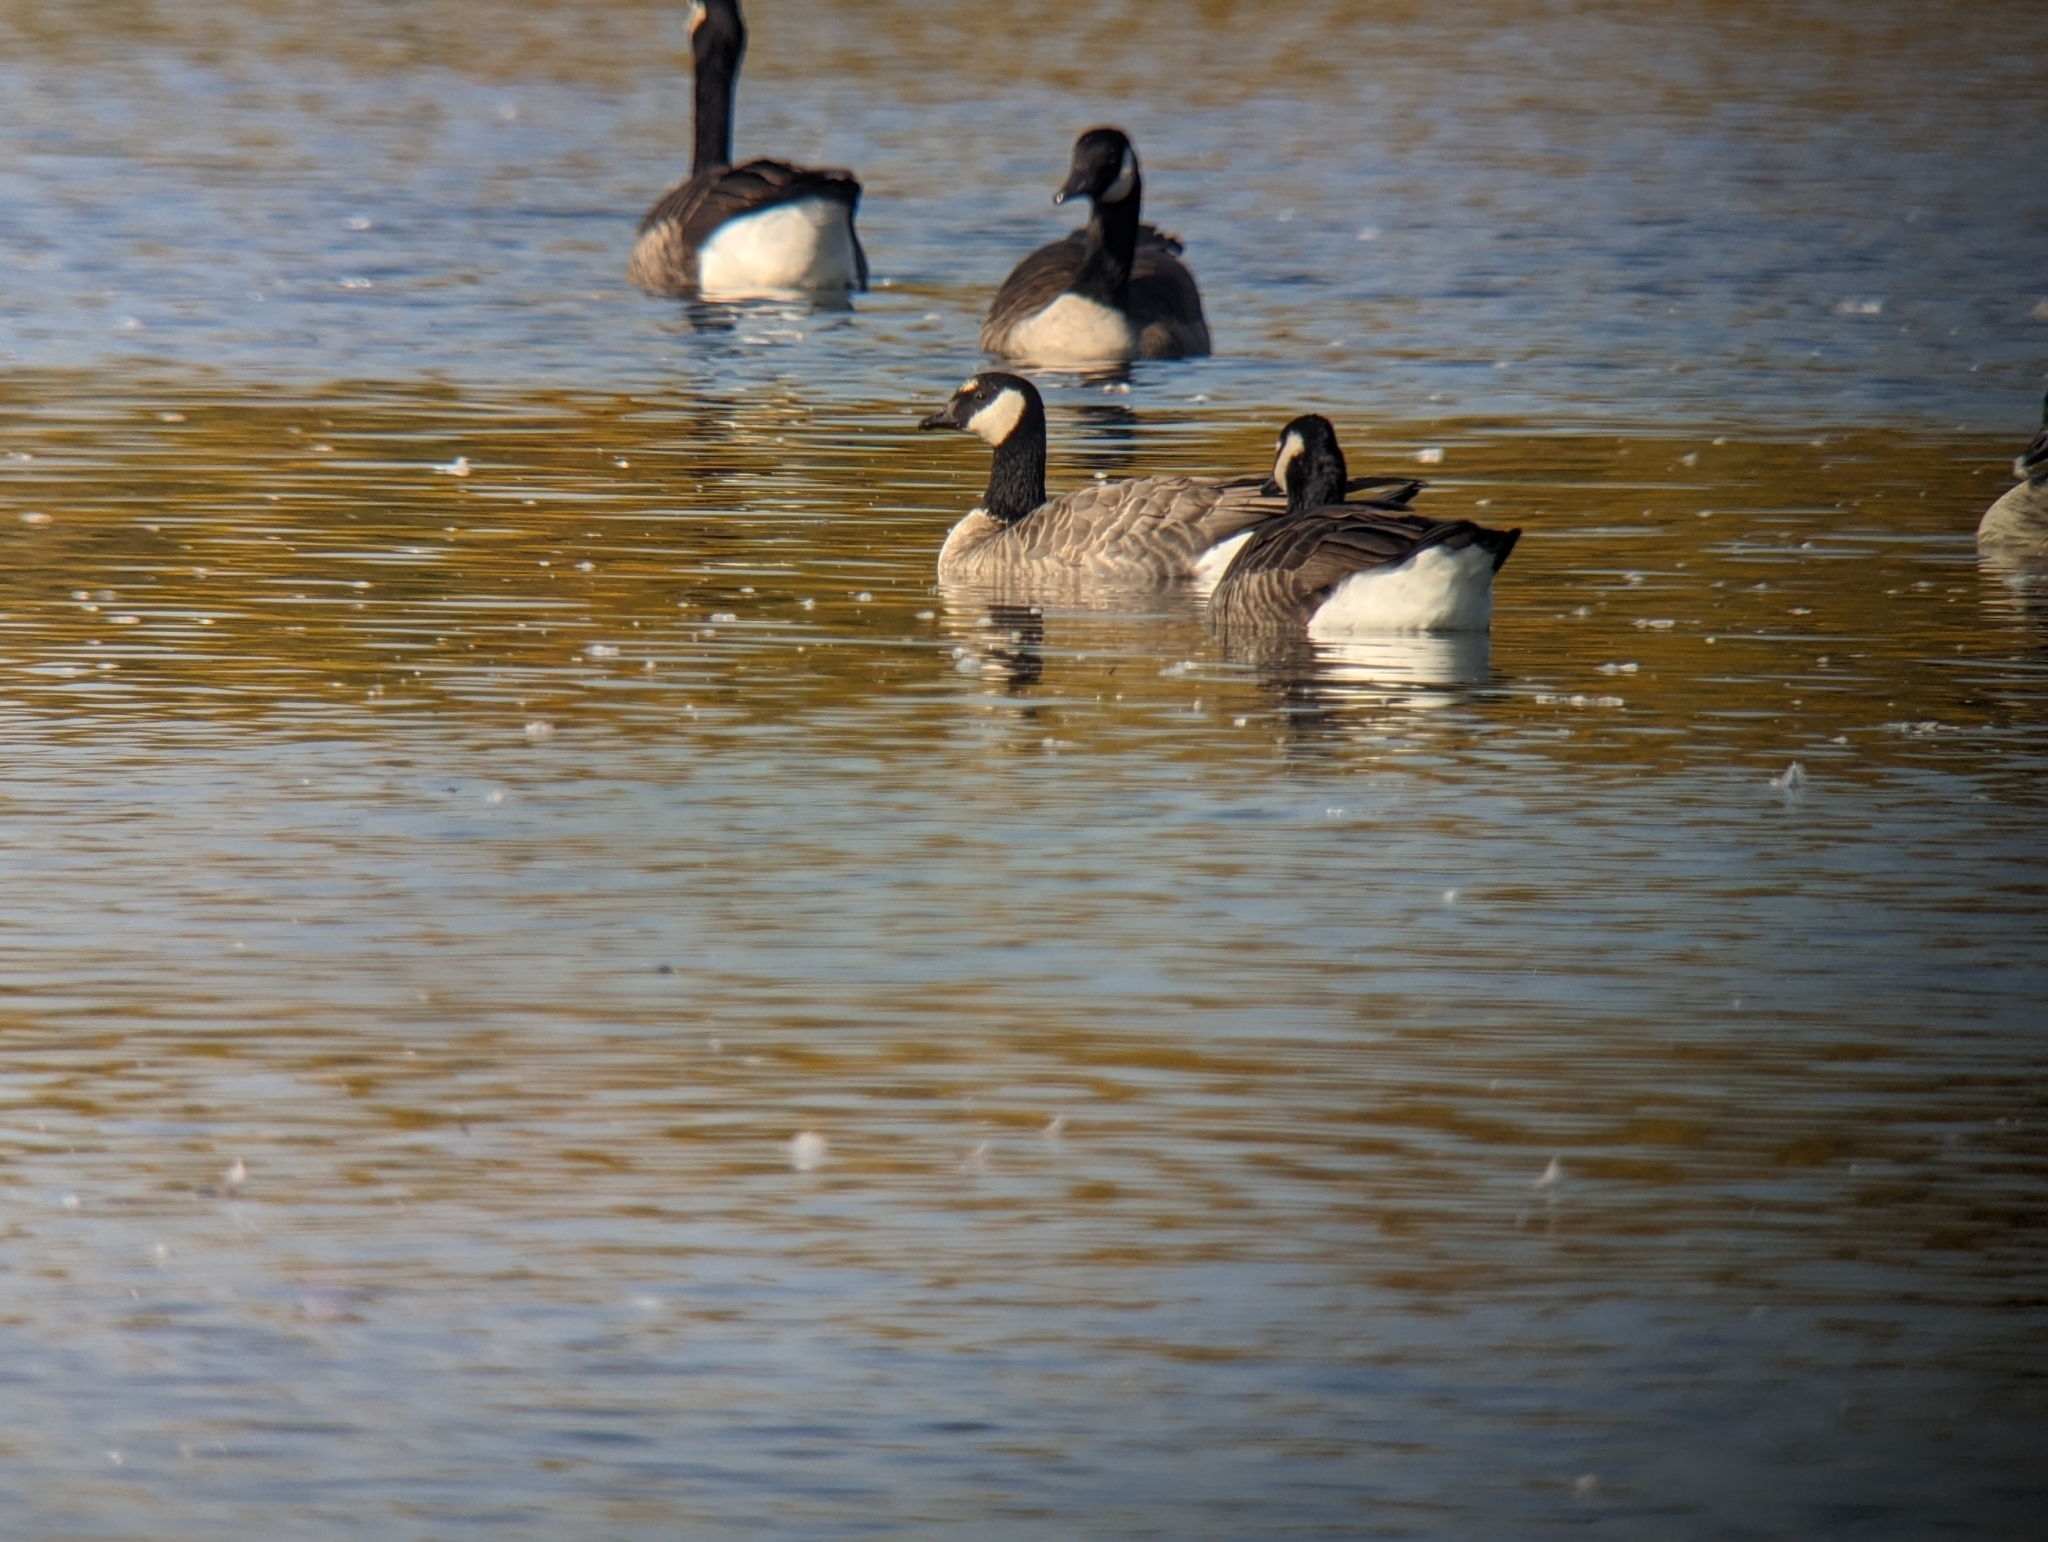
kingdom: Animalia
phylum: Chordata
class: Aves
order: Anseriformes
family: Anatidae
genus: Branta
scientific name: Branta hutchinsii
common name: Cackling goose
